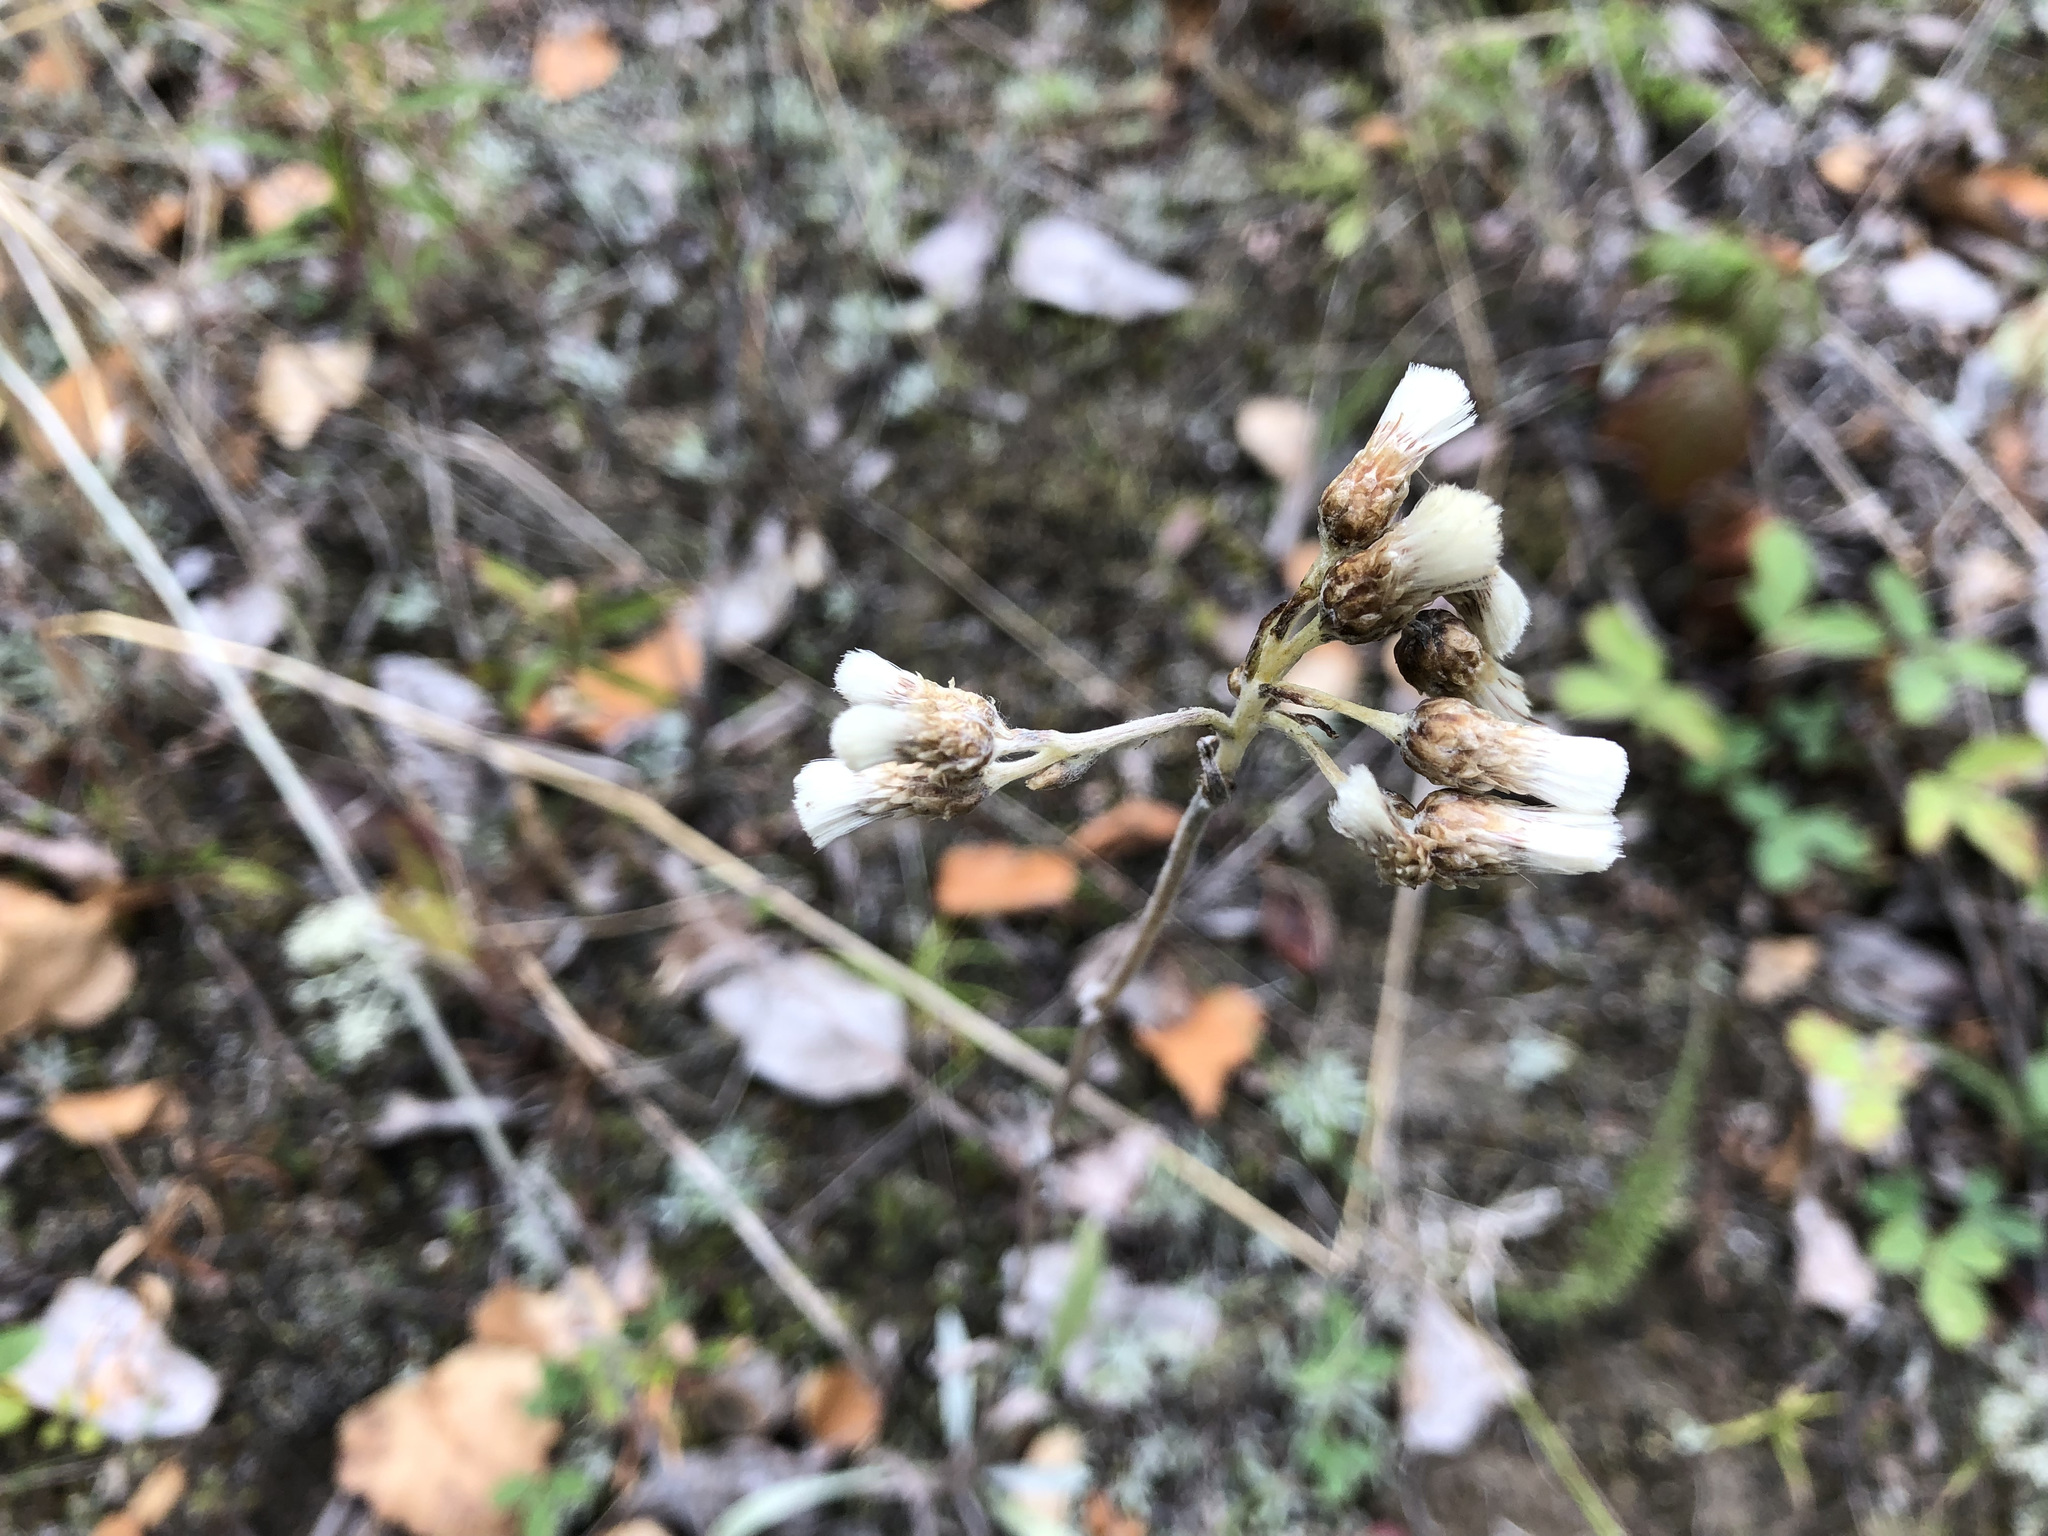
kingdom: Plantae
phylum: Tracheophyta
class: Magnoliopsida
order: Asterales
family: Asteraceae
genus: Antennaria
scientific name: Antennaria pulcherrima
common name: Handsome pussytoes
